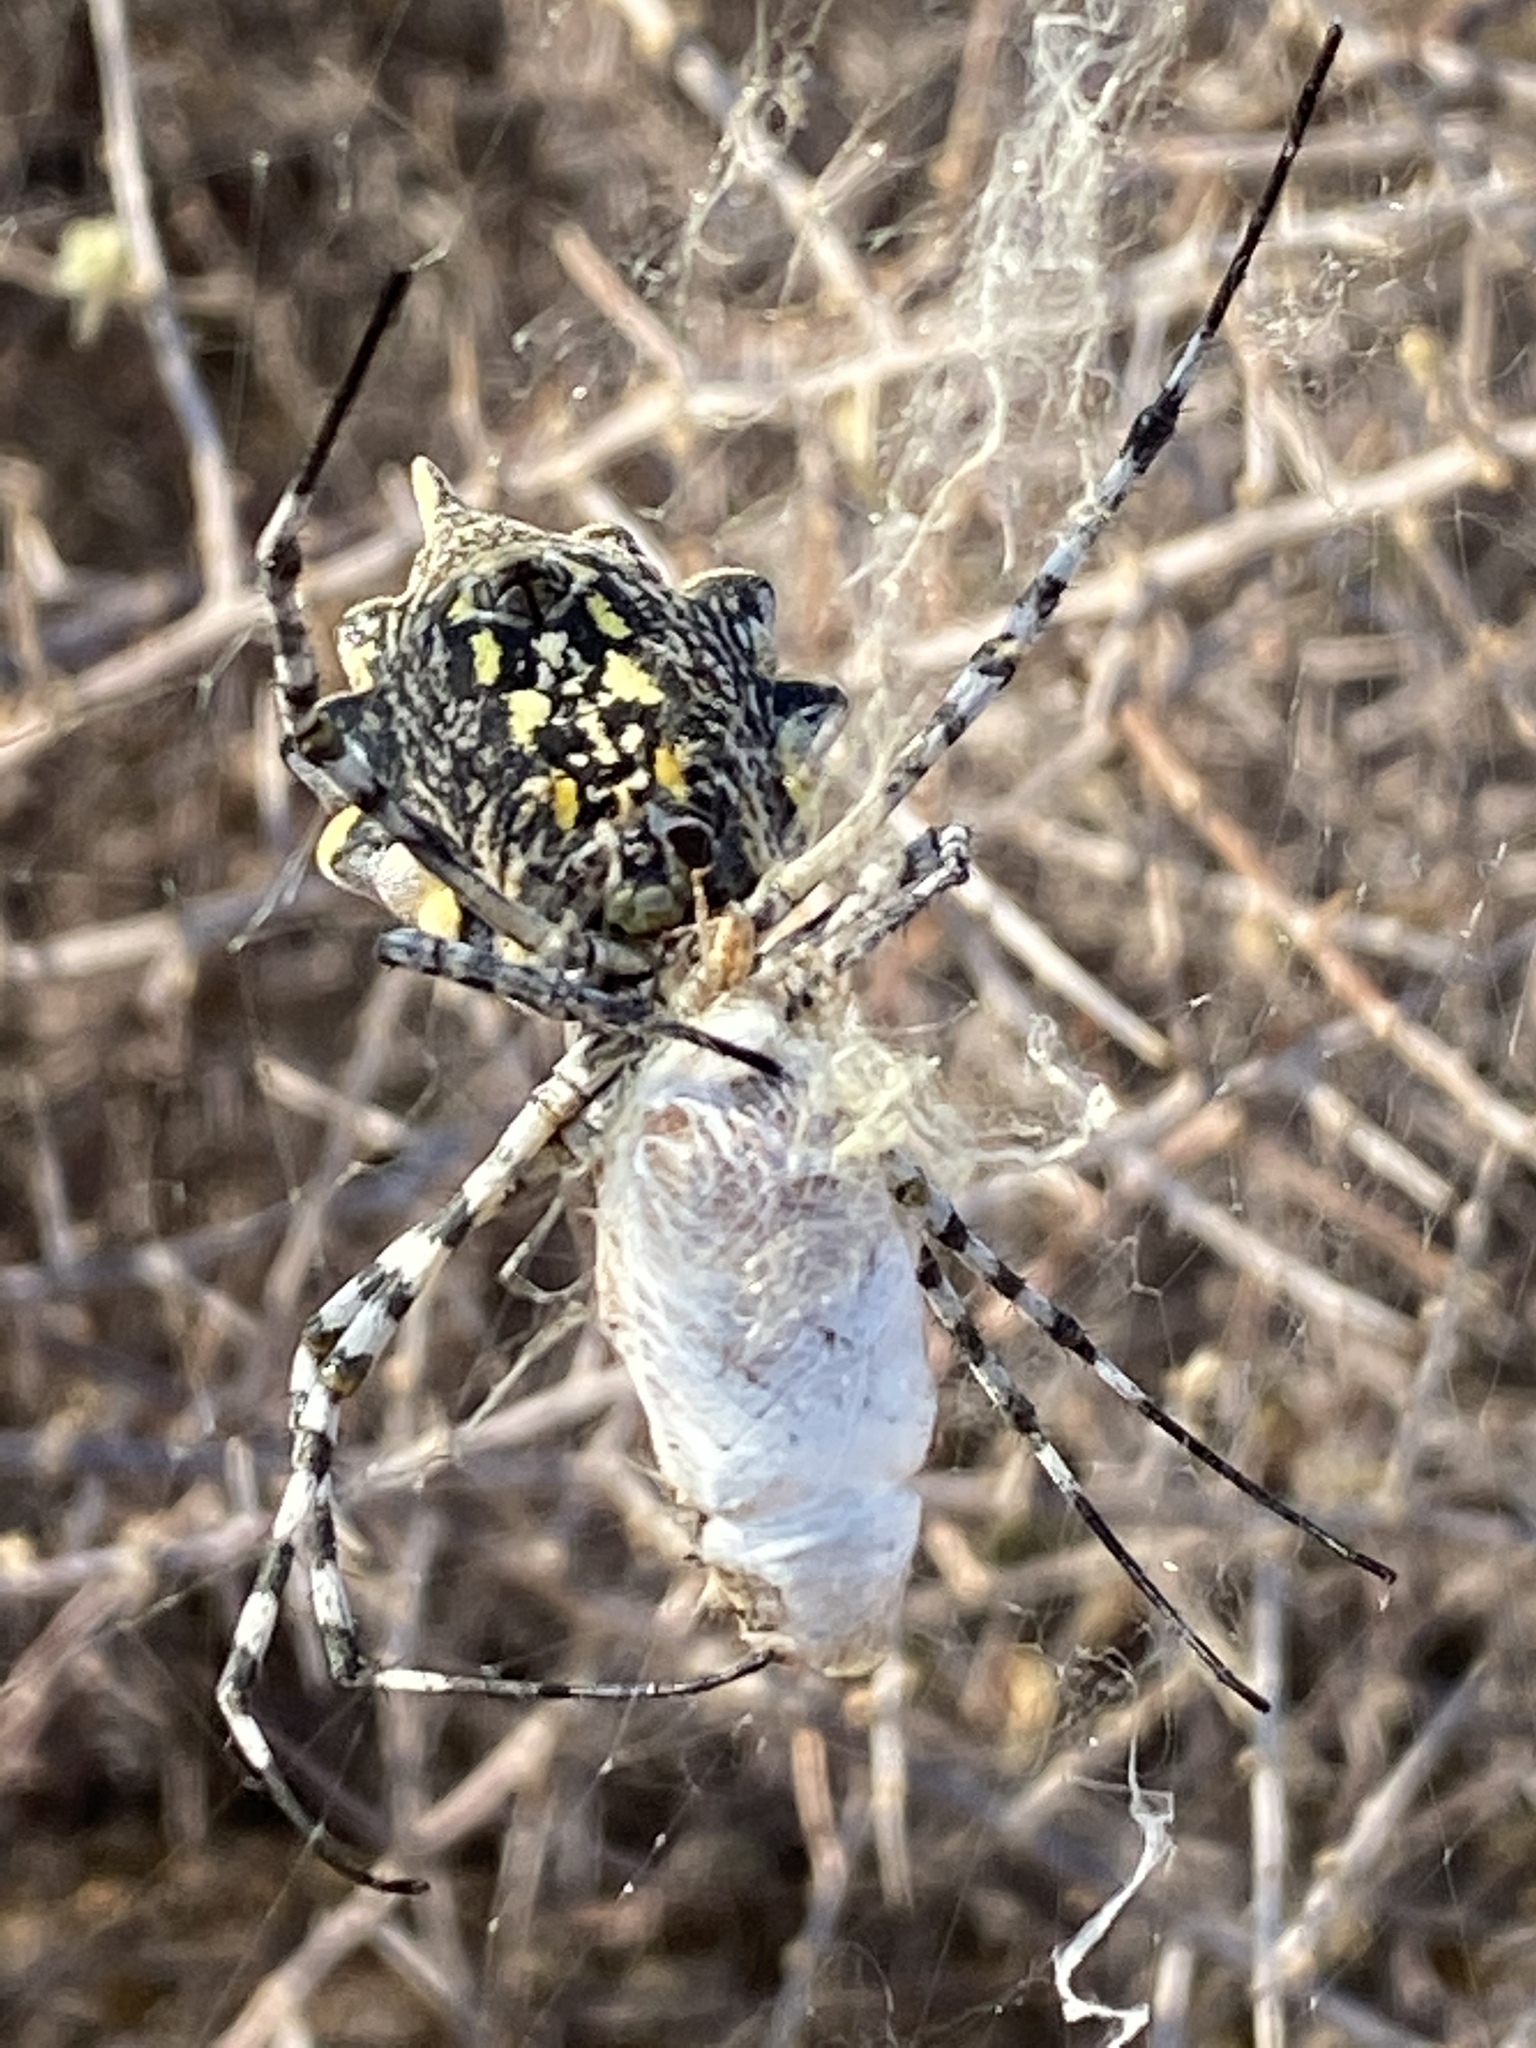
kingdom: Animalia
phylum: Arthropoda
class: Arachnida
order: Araneae
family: Araneidae
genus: Argiope
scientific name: Argiope australis
